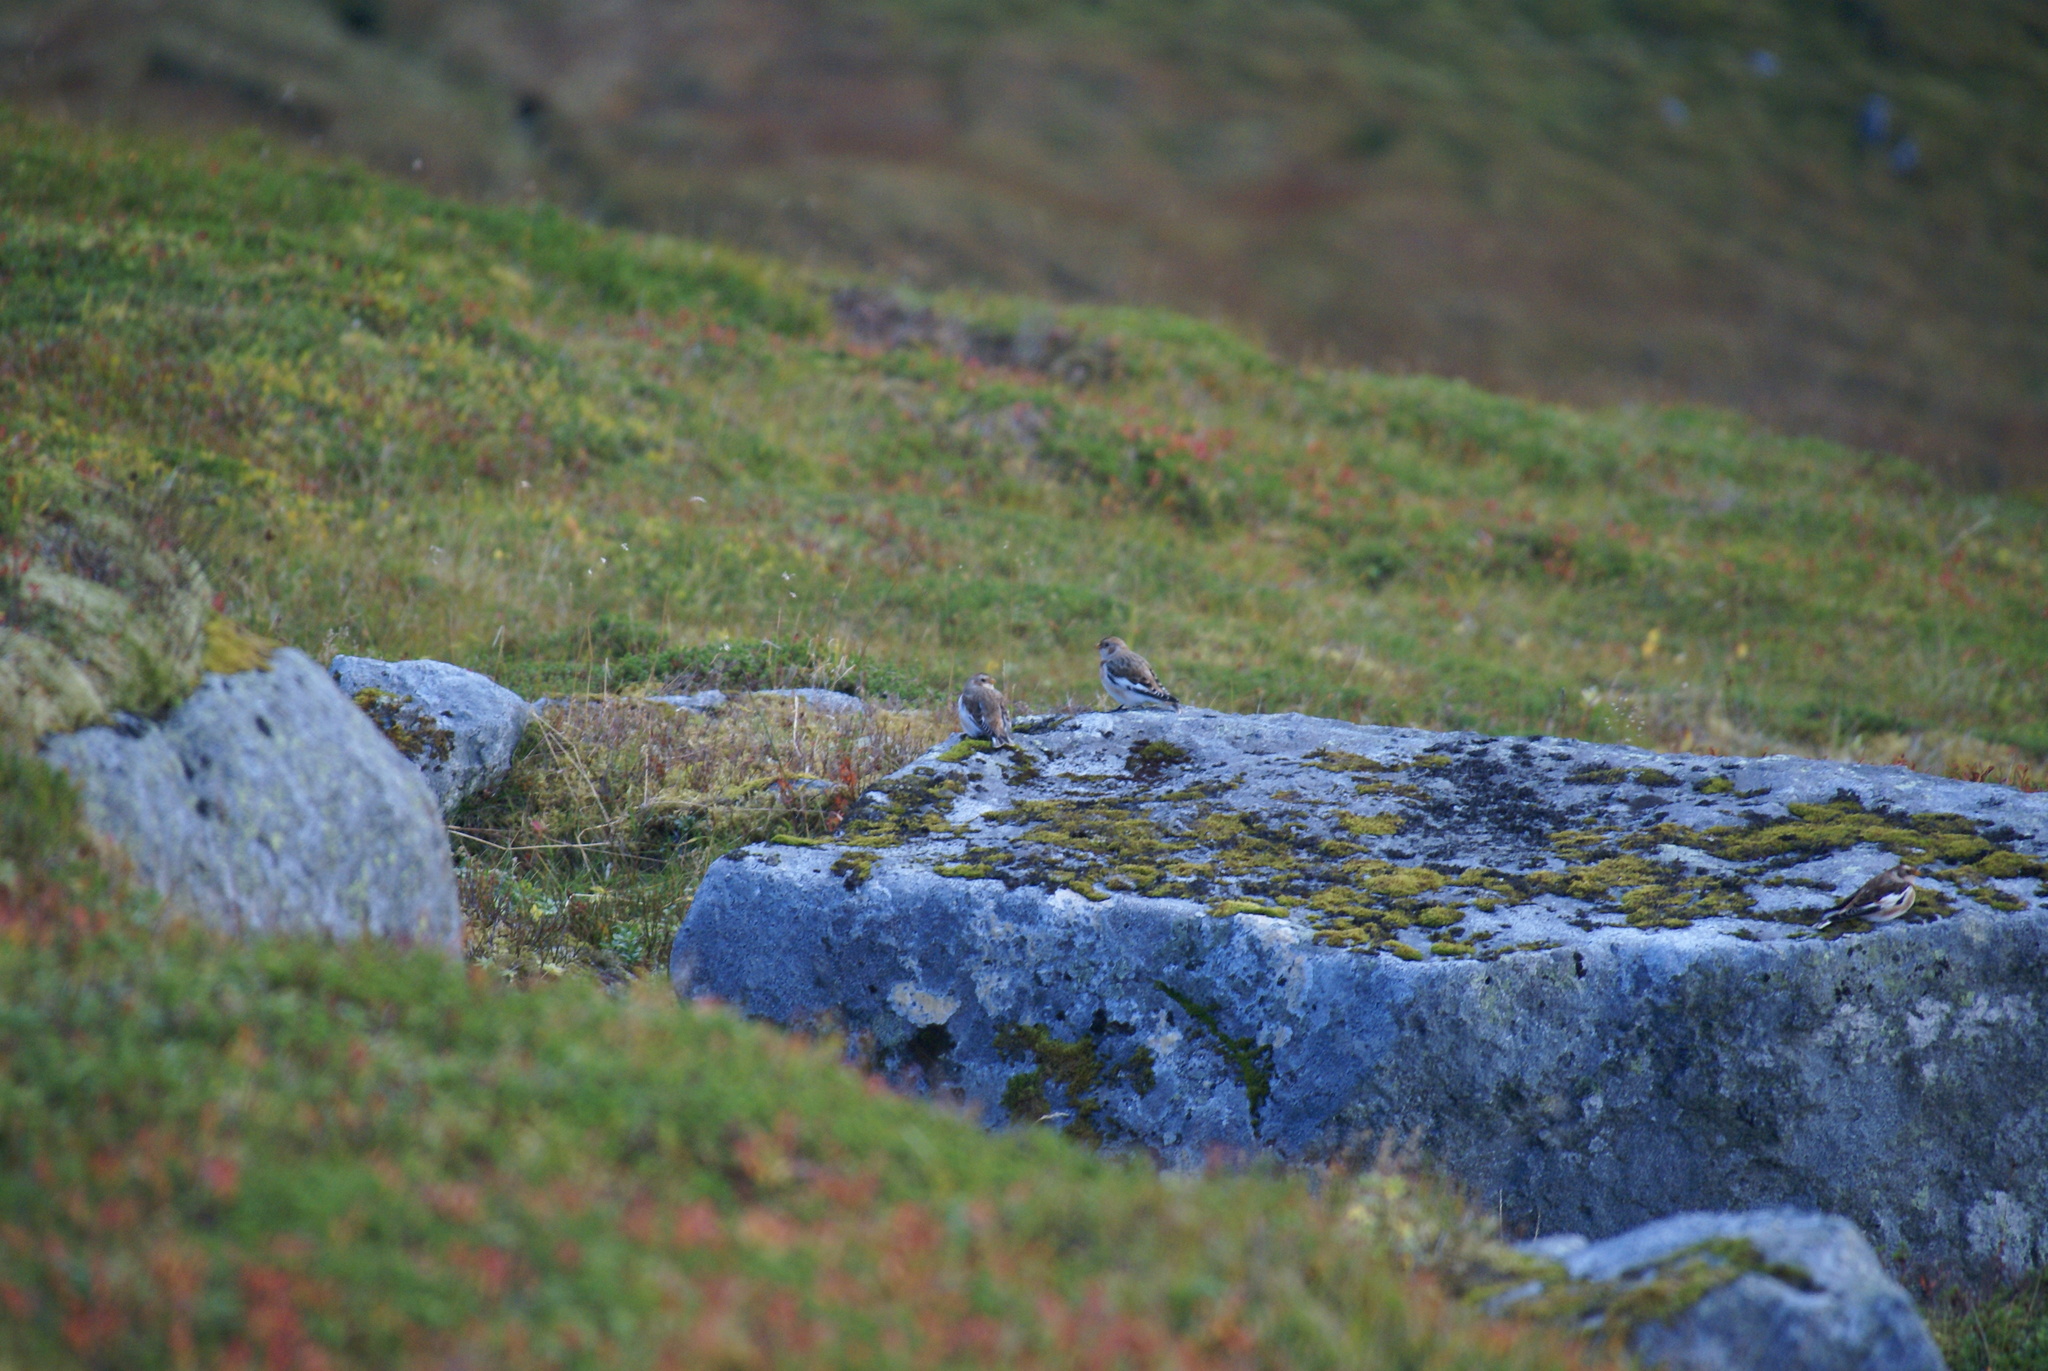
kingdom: Animalia
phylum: Chordata
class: Aves
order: Passeriformes
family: Calcariidae
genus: Plectrophenax
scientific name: Plectrophenax nivalis
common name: Snow bunting
